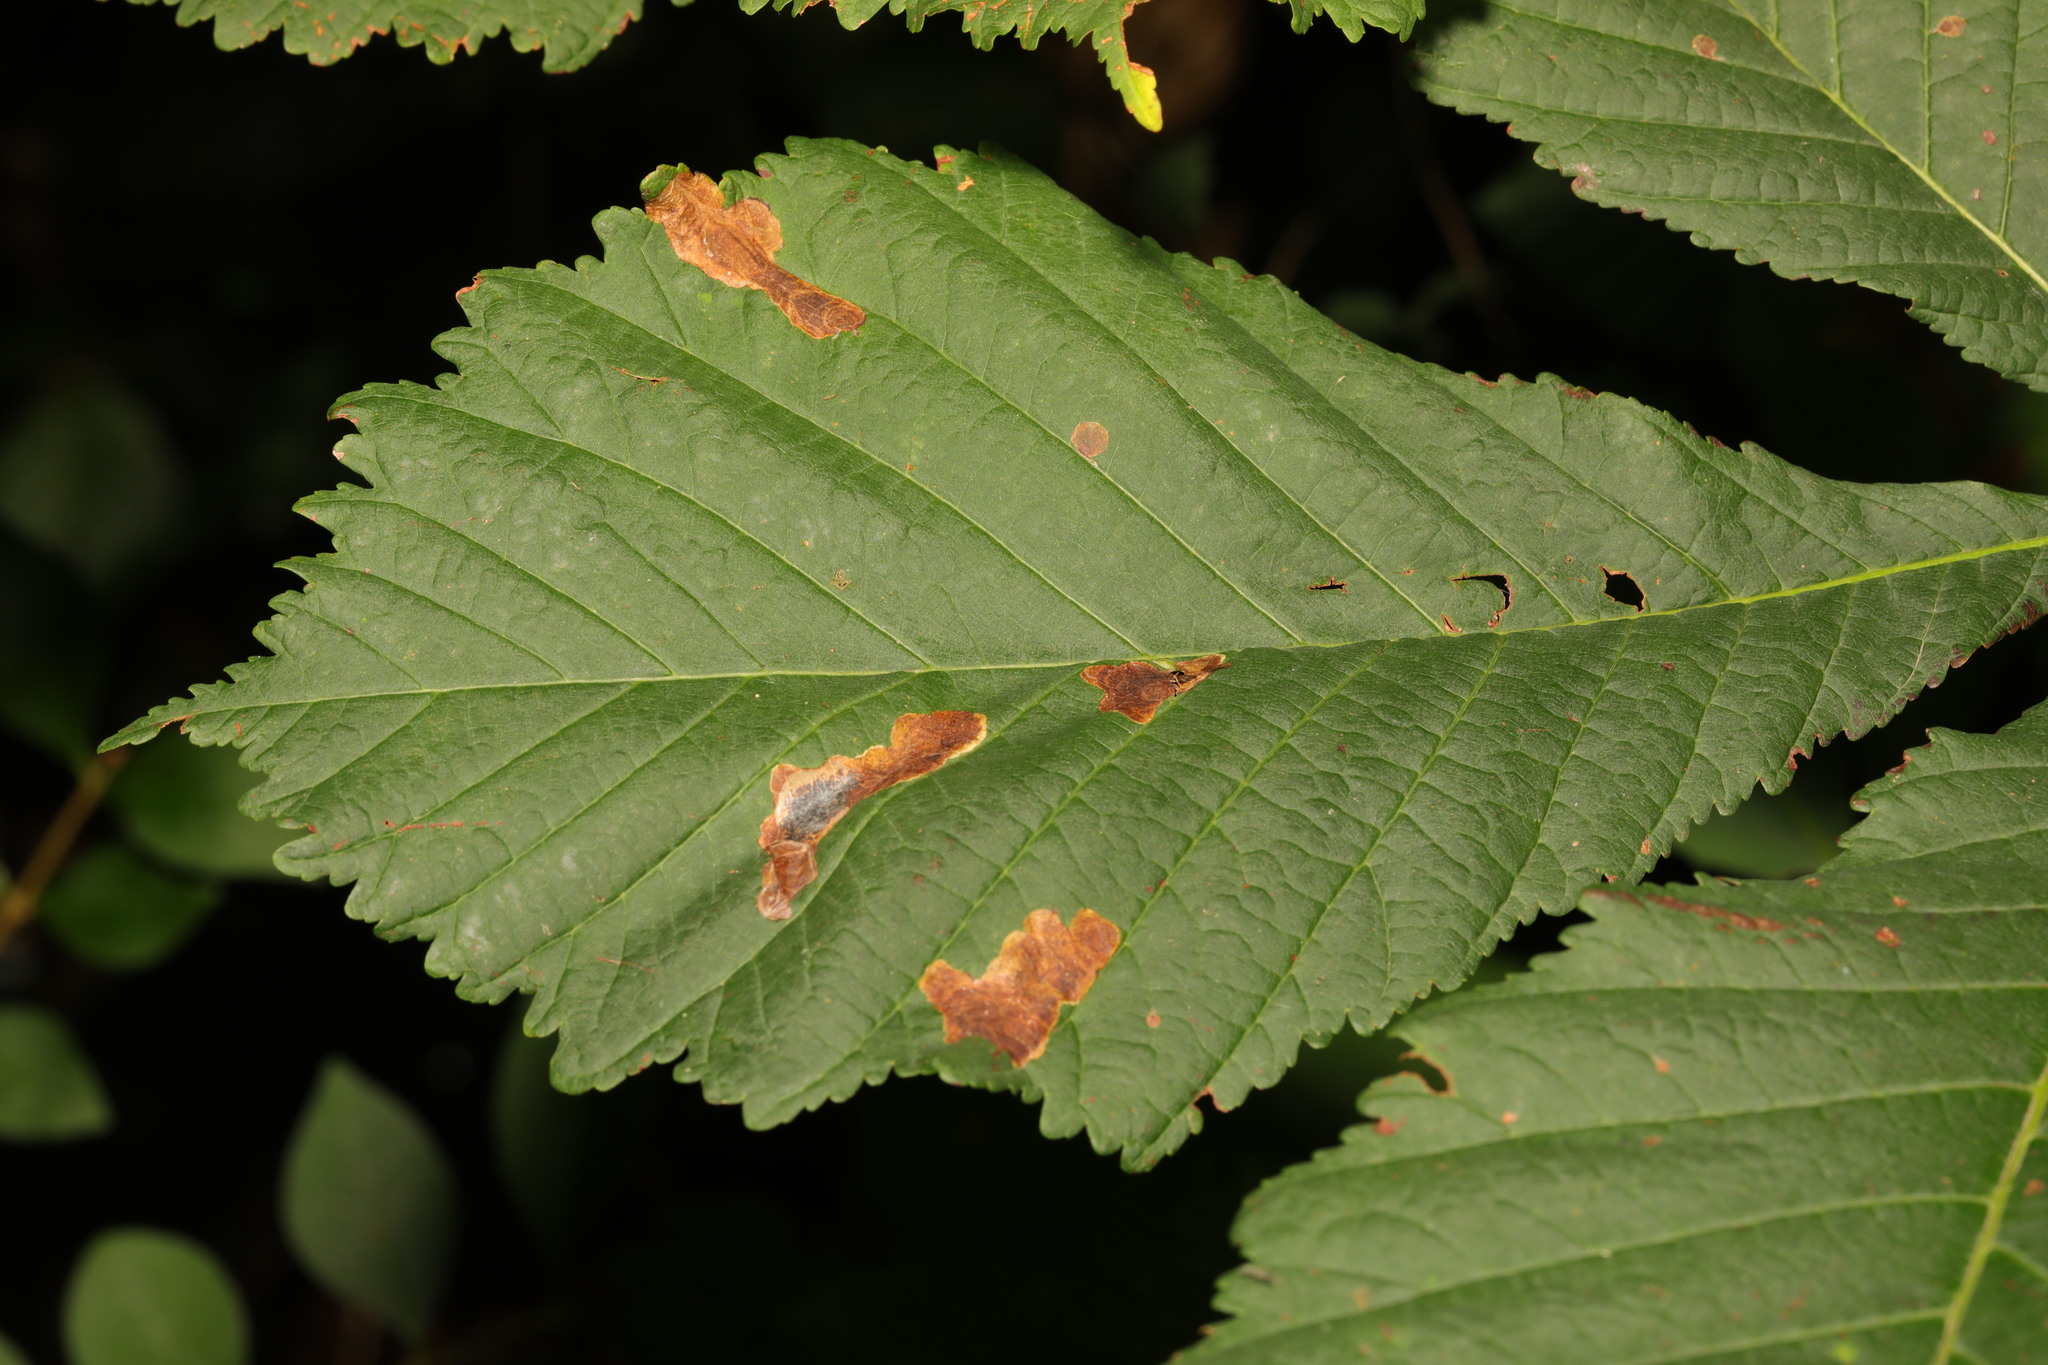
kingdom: Animalia
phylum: Arthropoda
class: Insecta
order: Lepidoptera
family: Gracillariidae
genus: Cameraria
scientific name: Cameraria ohridella
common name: Horse-chestnut leaf-miner
